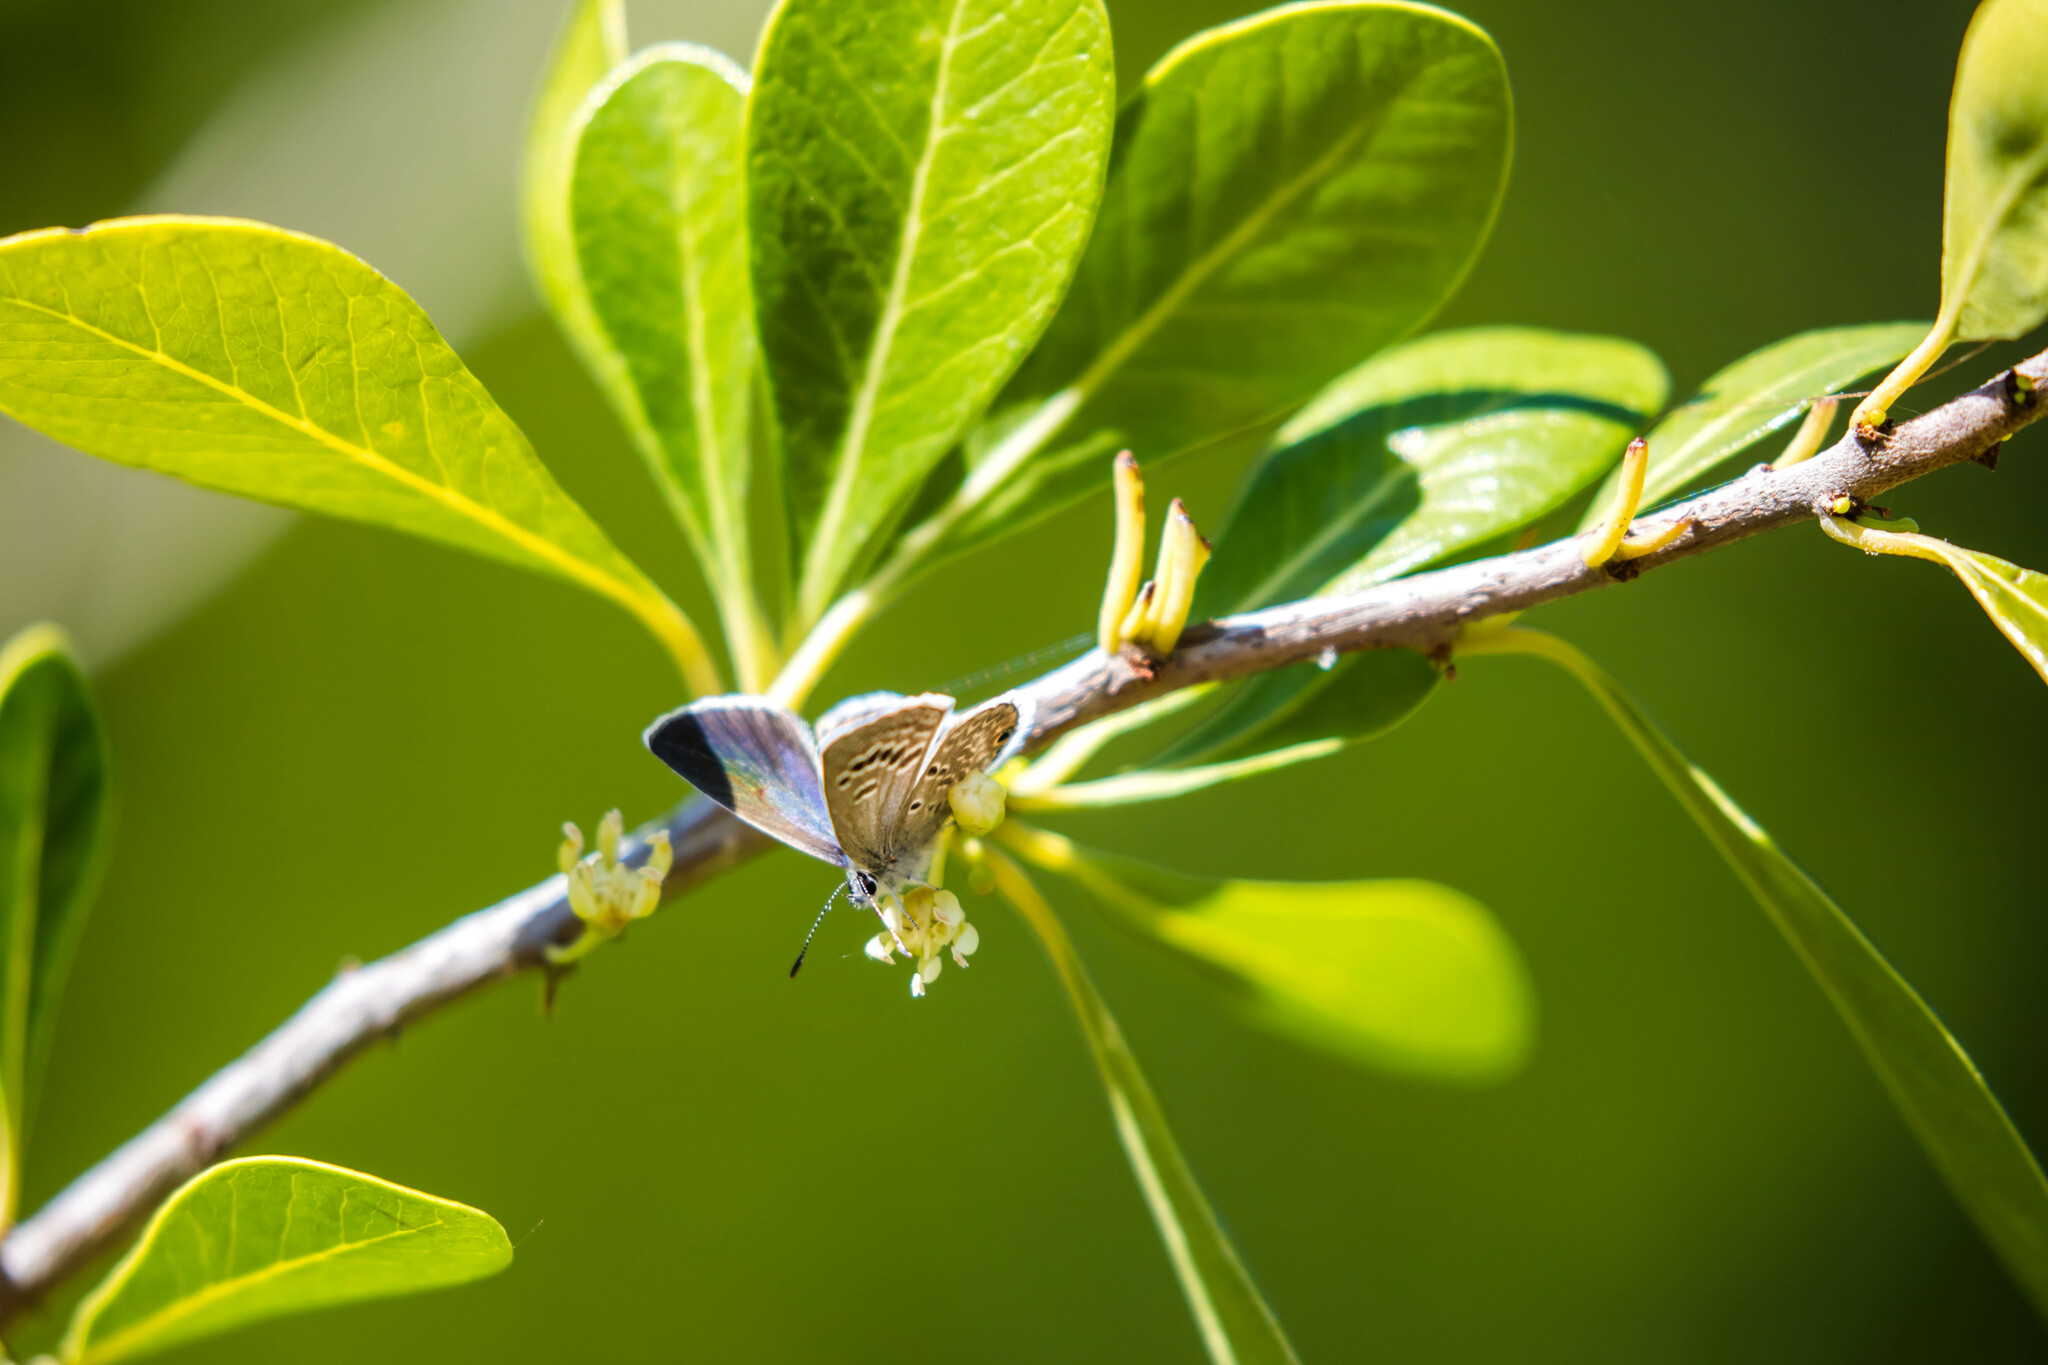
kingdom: Animalia
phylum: Arthropoda
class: Insecta
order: Lepidoptera
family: Lycaenidae
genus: Echinargus
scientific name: Echinargus isola
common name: Reakirt's blue
